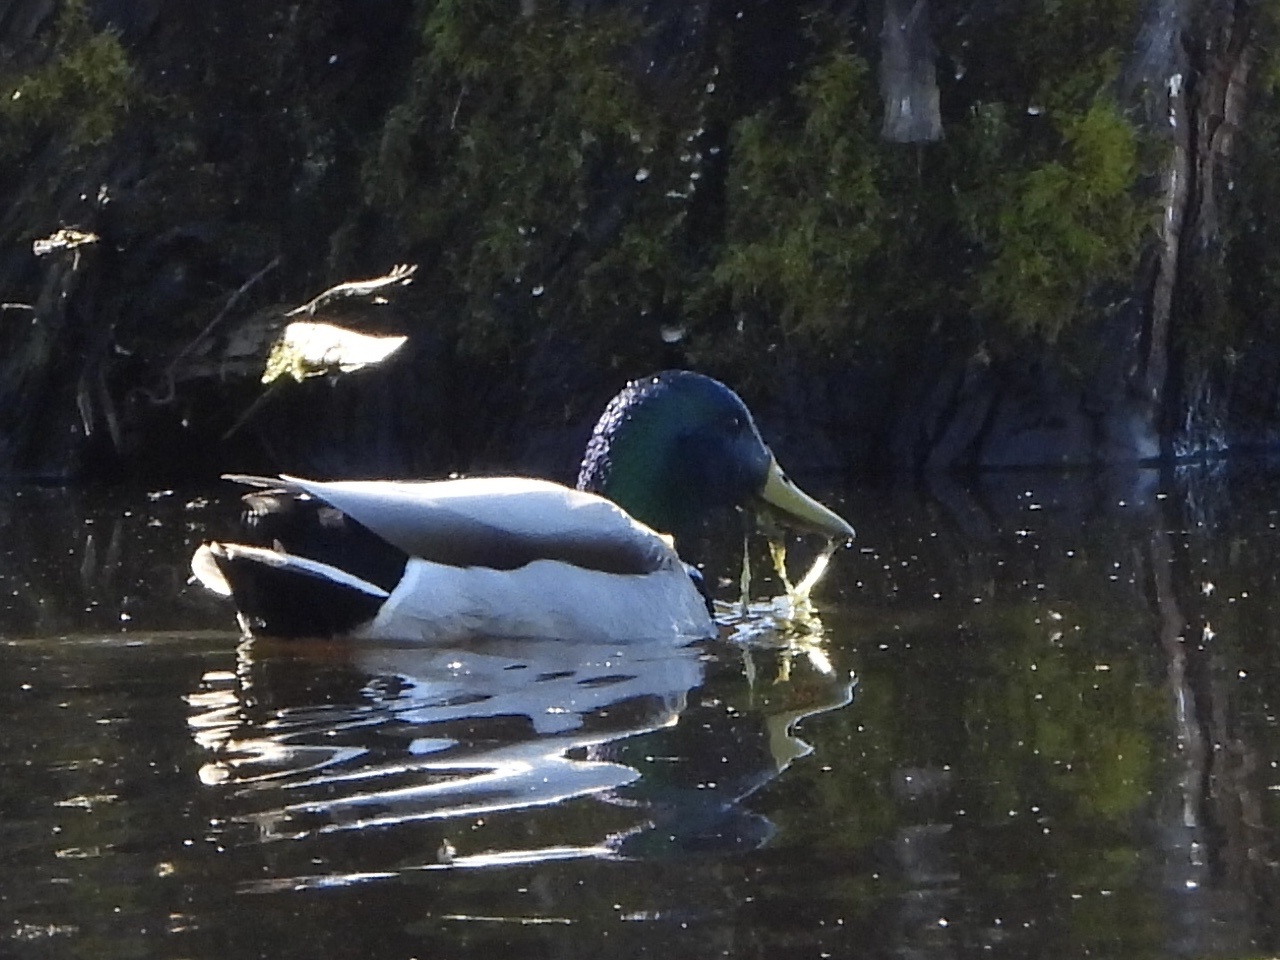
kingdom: Animalia
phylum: Chordata
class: Aves
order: Anseriformes
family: Anatidae
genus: Anas
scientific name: Anas platyrhynchos
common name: Mallard
